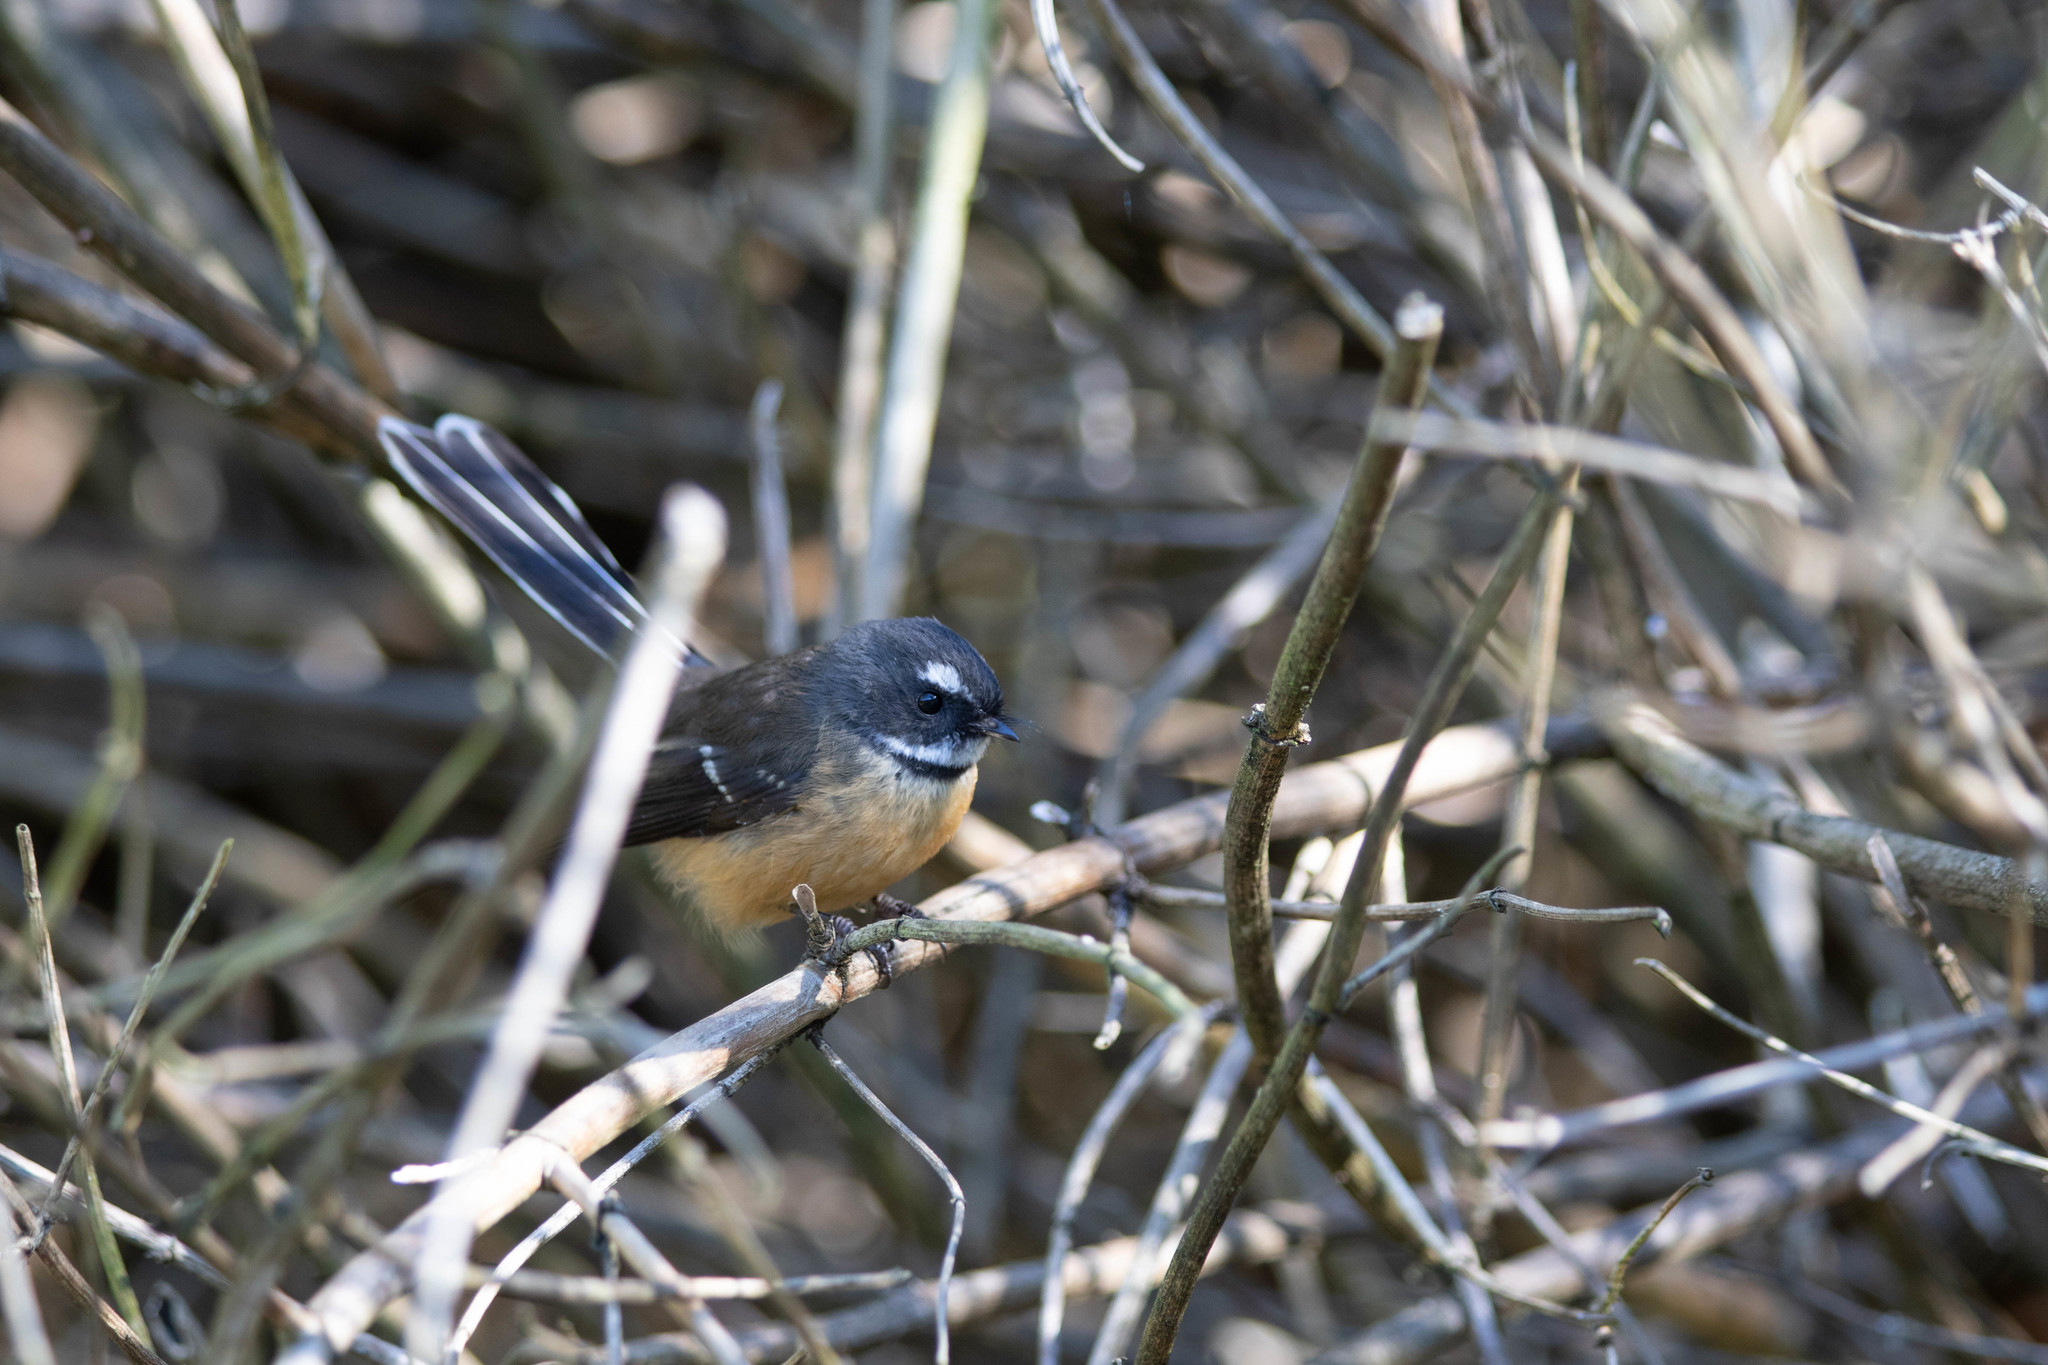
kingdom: Animalia
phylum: Chordata
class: Aves
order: Passeriformes
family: Rhipiduridae
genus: Rhipidura
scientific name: Rhipidura fuliginosa
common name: New zealand fantail
